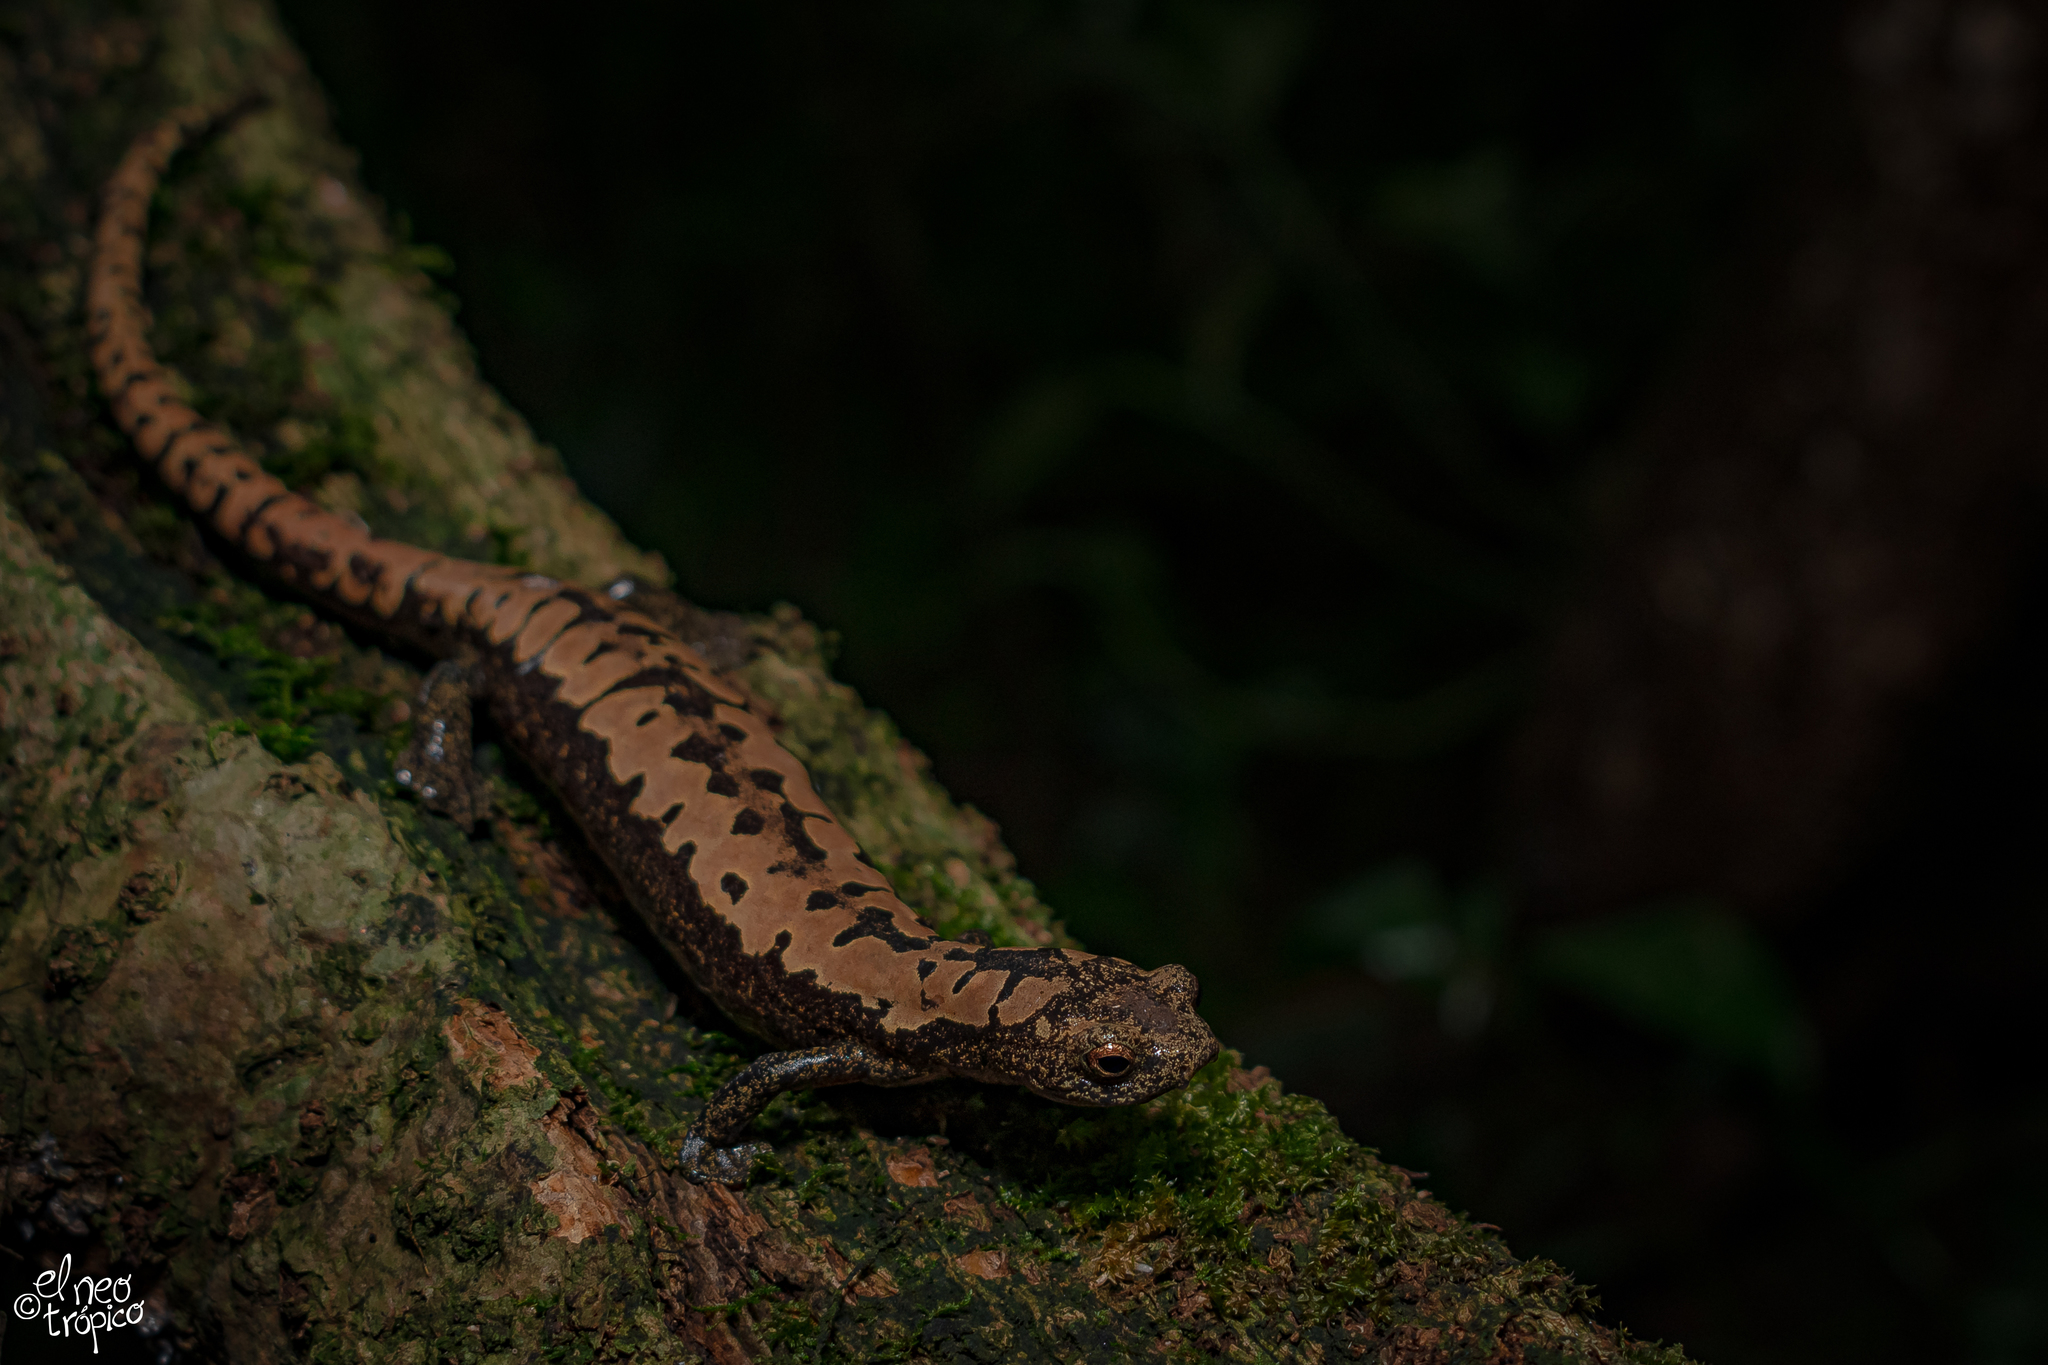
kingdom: Animalia
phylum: Chordata
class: Amphibia
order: Caudata
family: Plethodontidae
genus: Bolitoglossa
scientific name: Bolitoglossa alberchi
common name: Alberch's salamander
